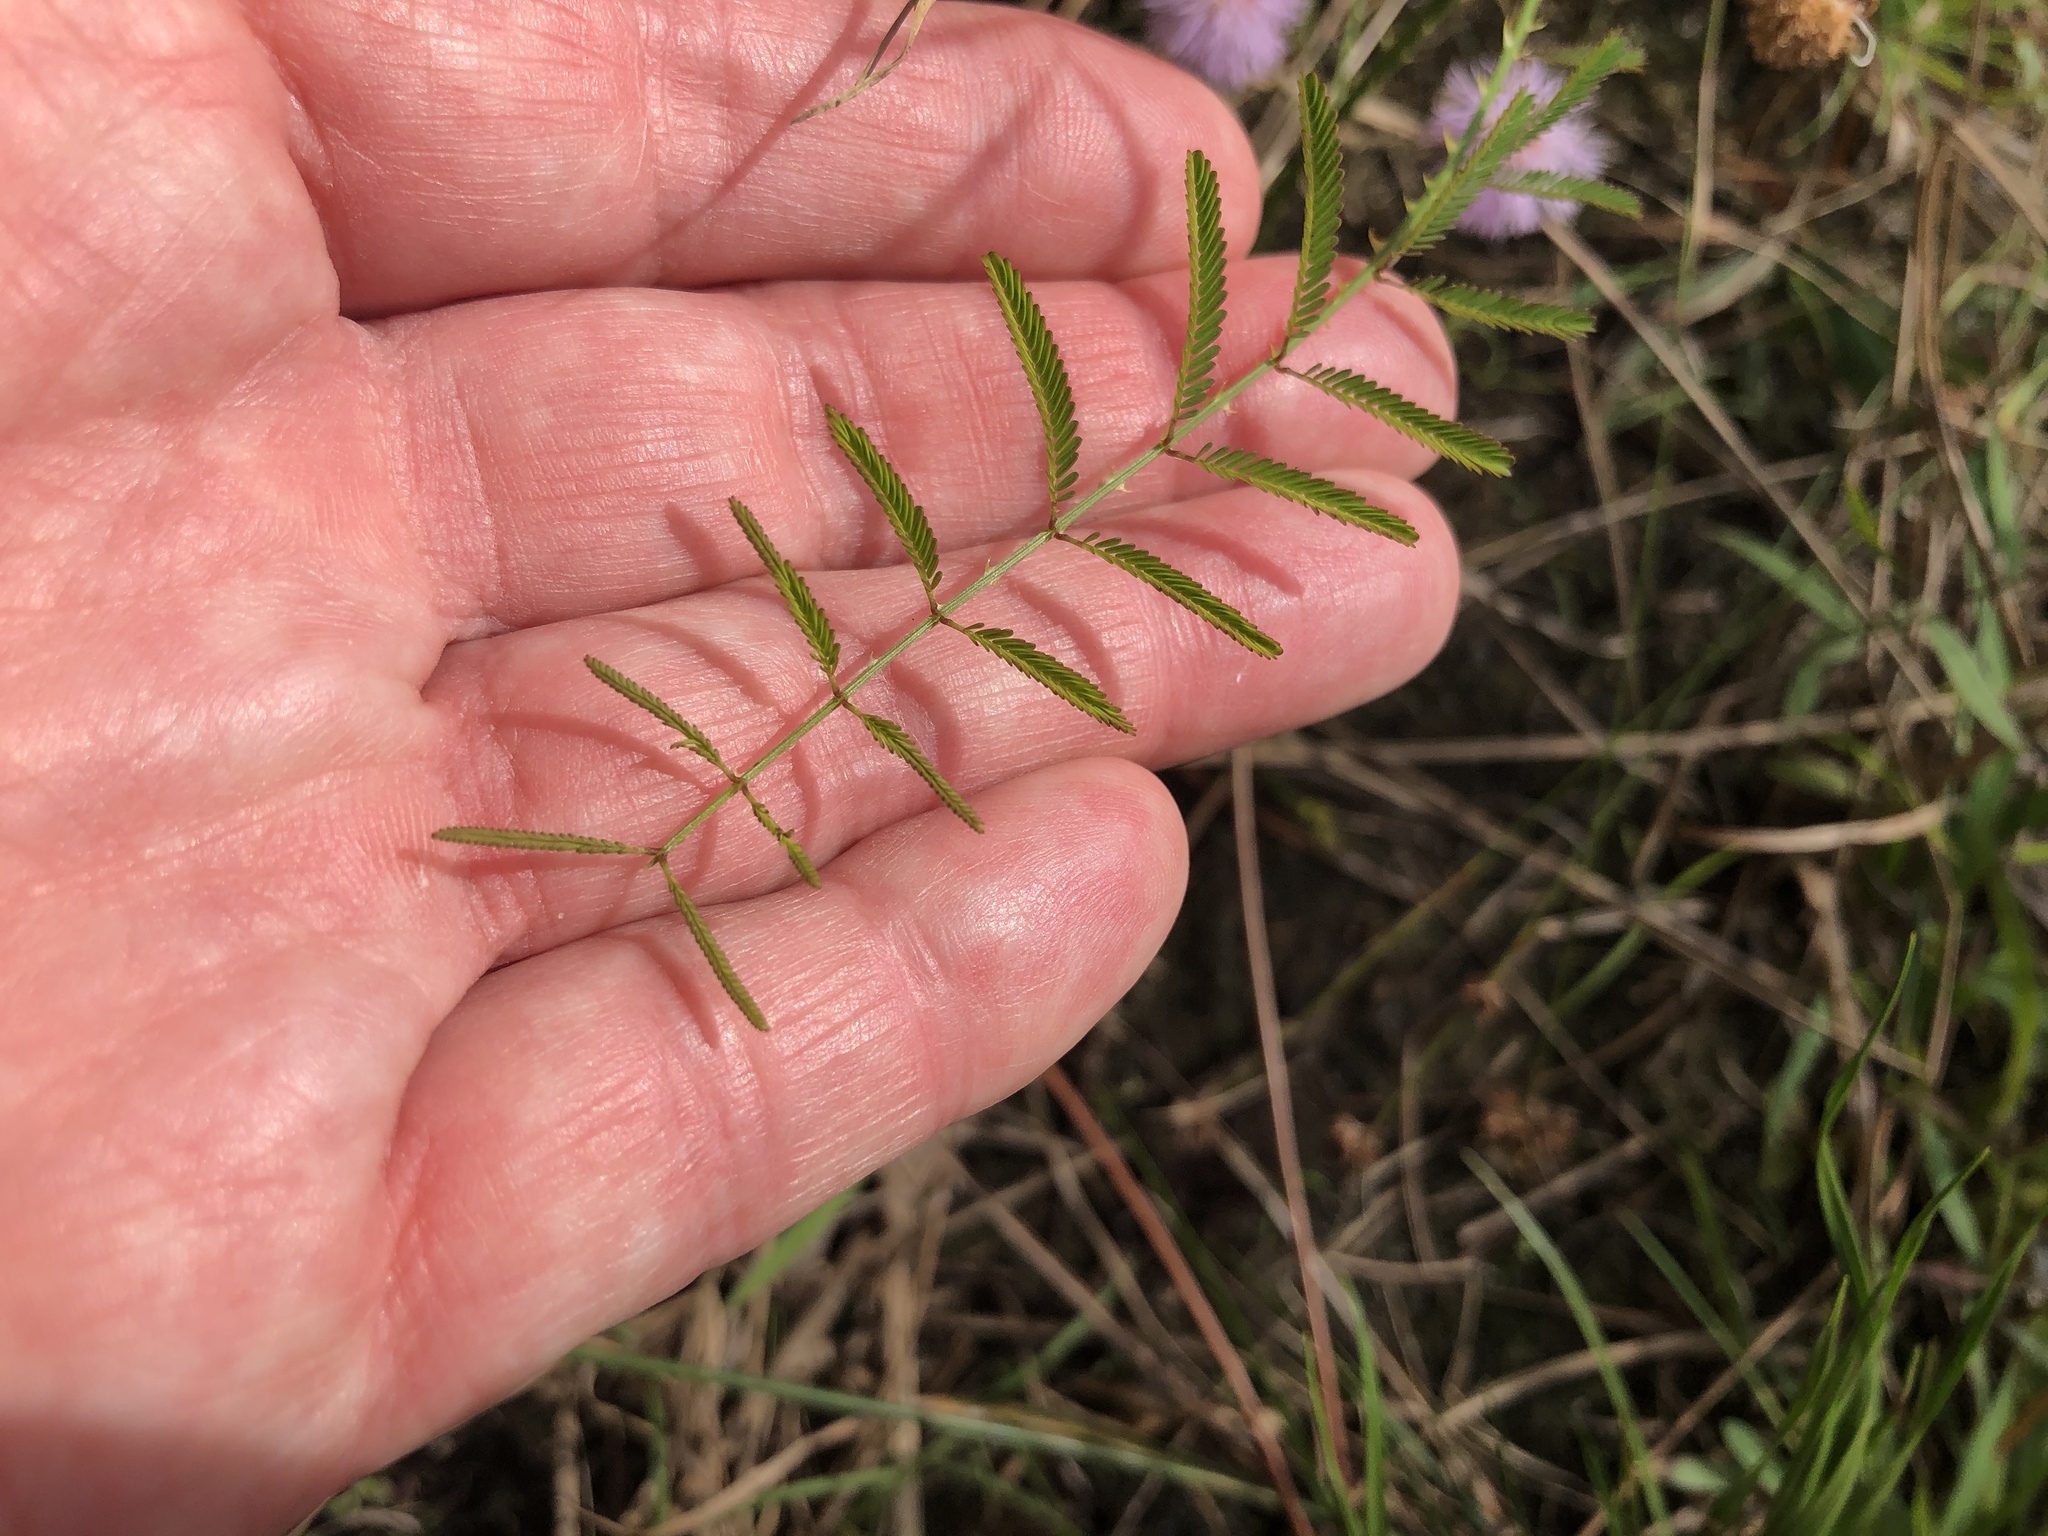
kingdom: Plantae
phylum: Tracheophyta
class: Magnoliopsida
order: Fabales
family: Fabaceae
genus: Mimosa
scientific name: Mimosa quadrivalvis
